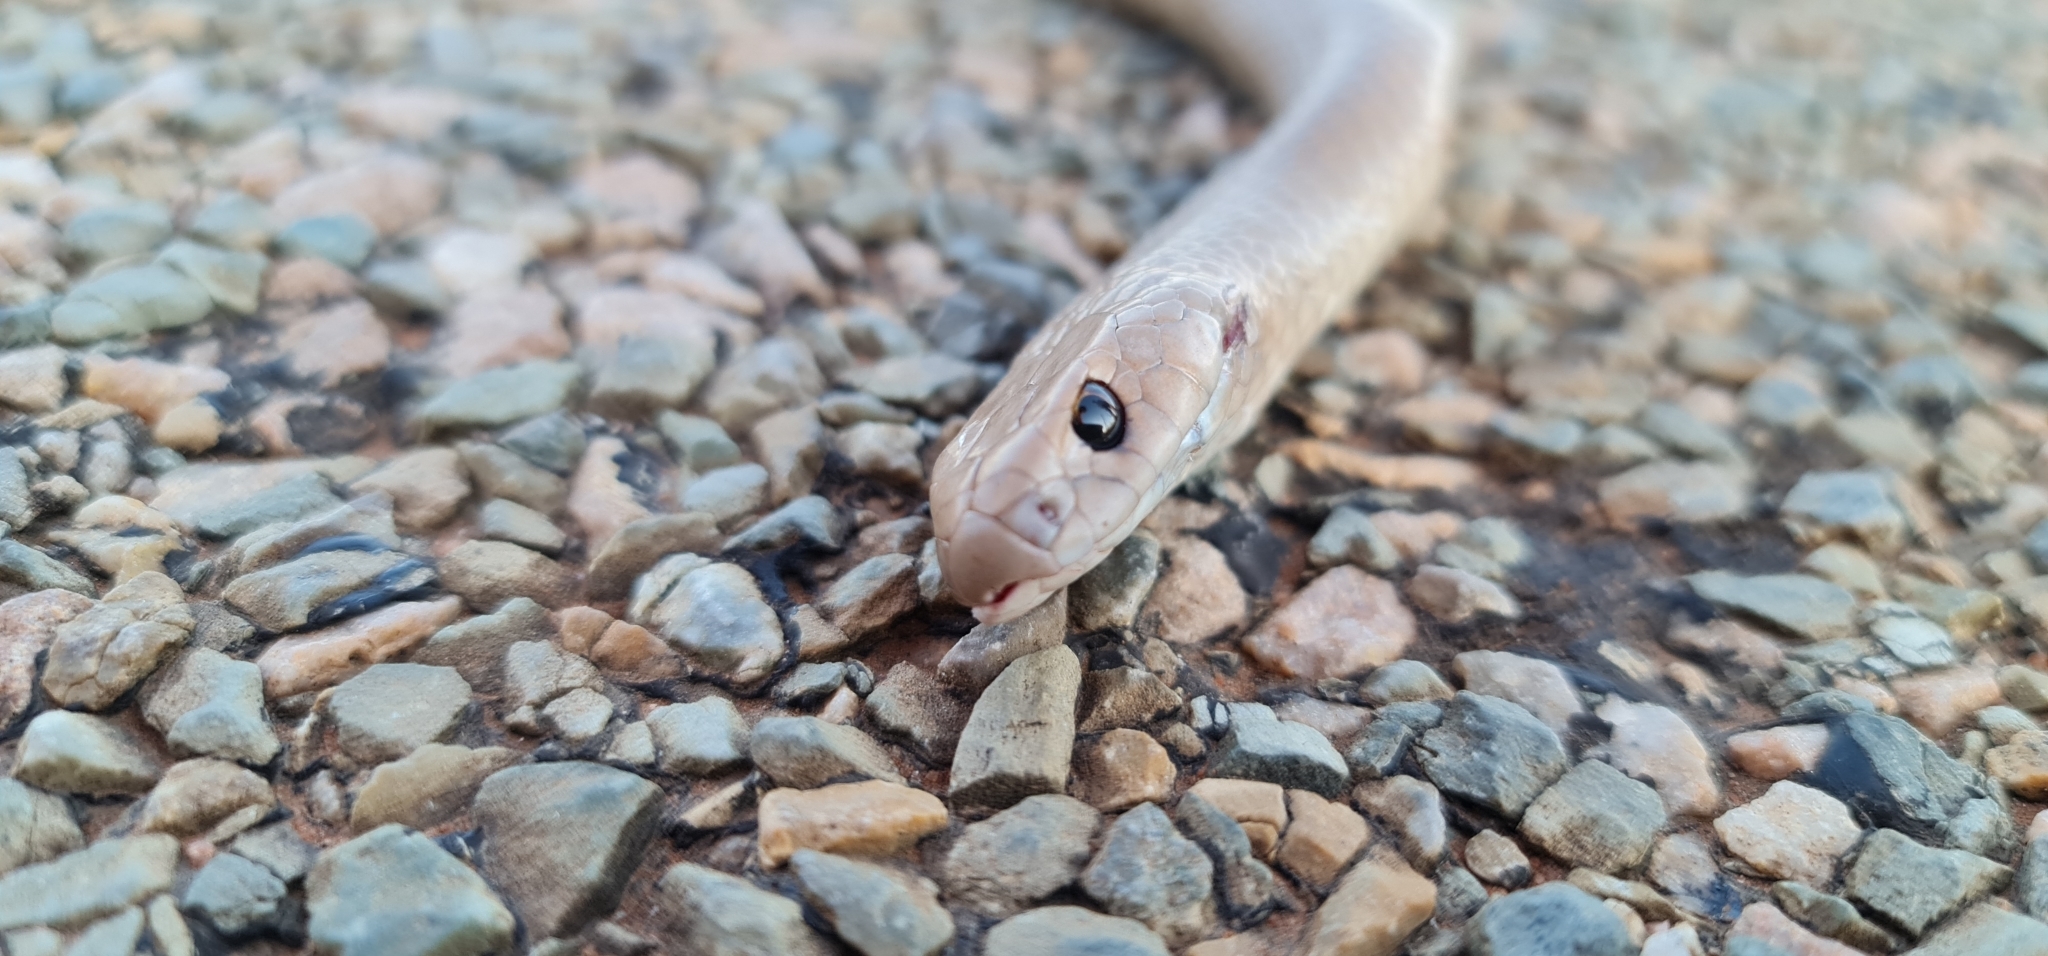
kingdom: Animalia
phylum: Chordata
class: Squamata
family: Elapidae
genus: Pseudonaja
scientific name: Pseudonaja textilis
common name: Eastern brown snake
